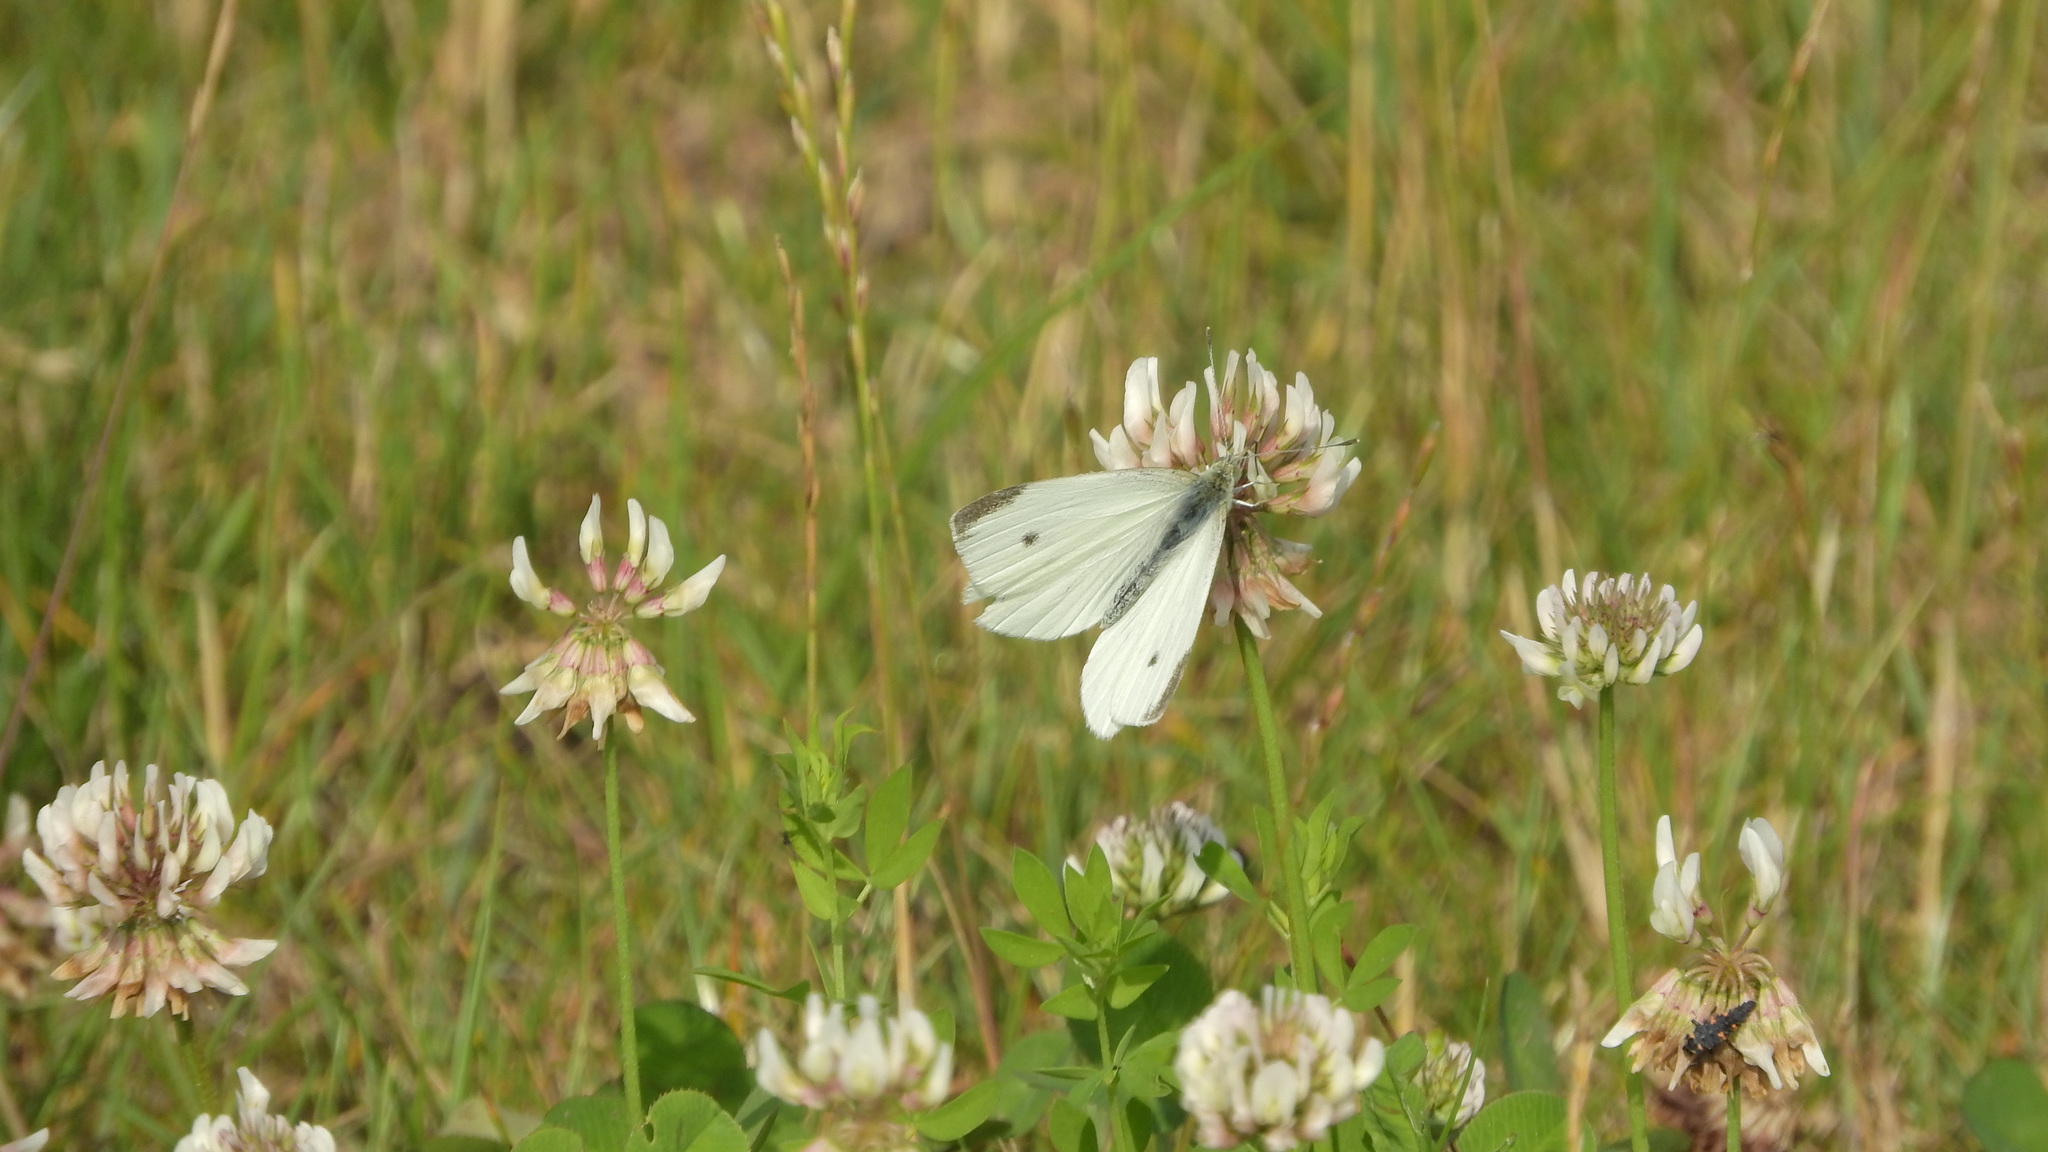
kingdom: Animalia
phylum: Arthropoda
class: Insecta
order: Lepidoptera
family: Pieridae
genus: Pieris
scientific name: Pieris rapae
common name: Small white
